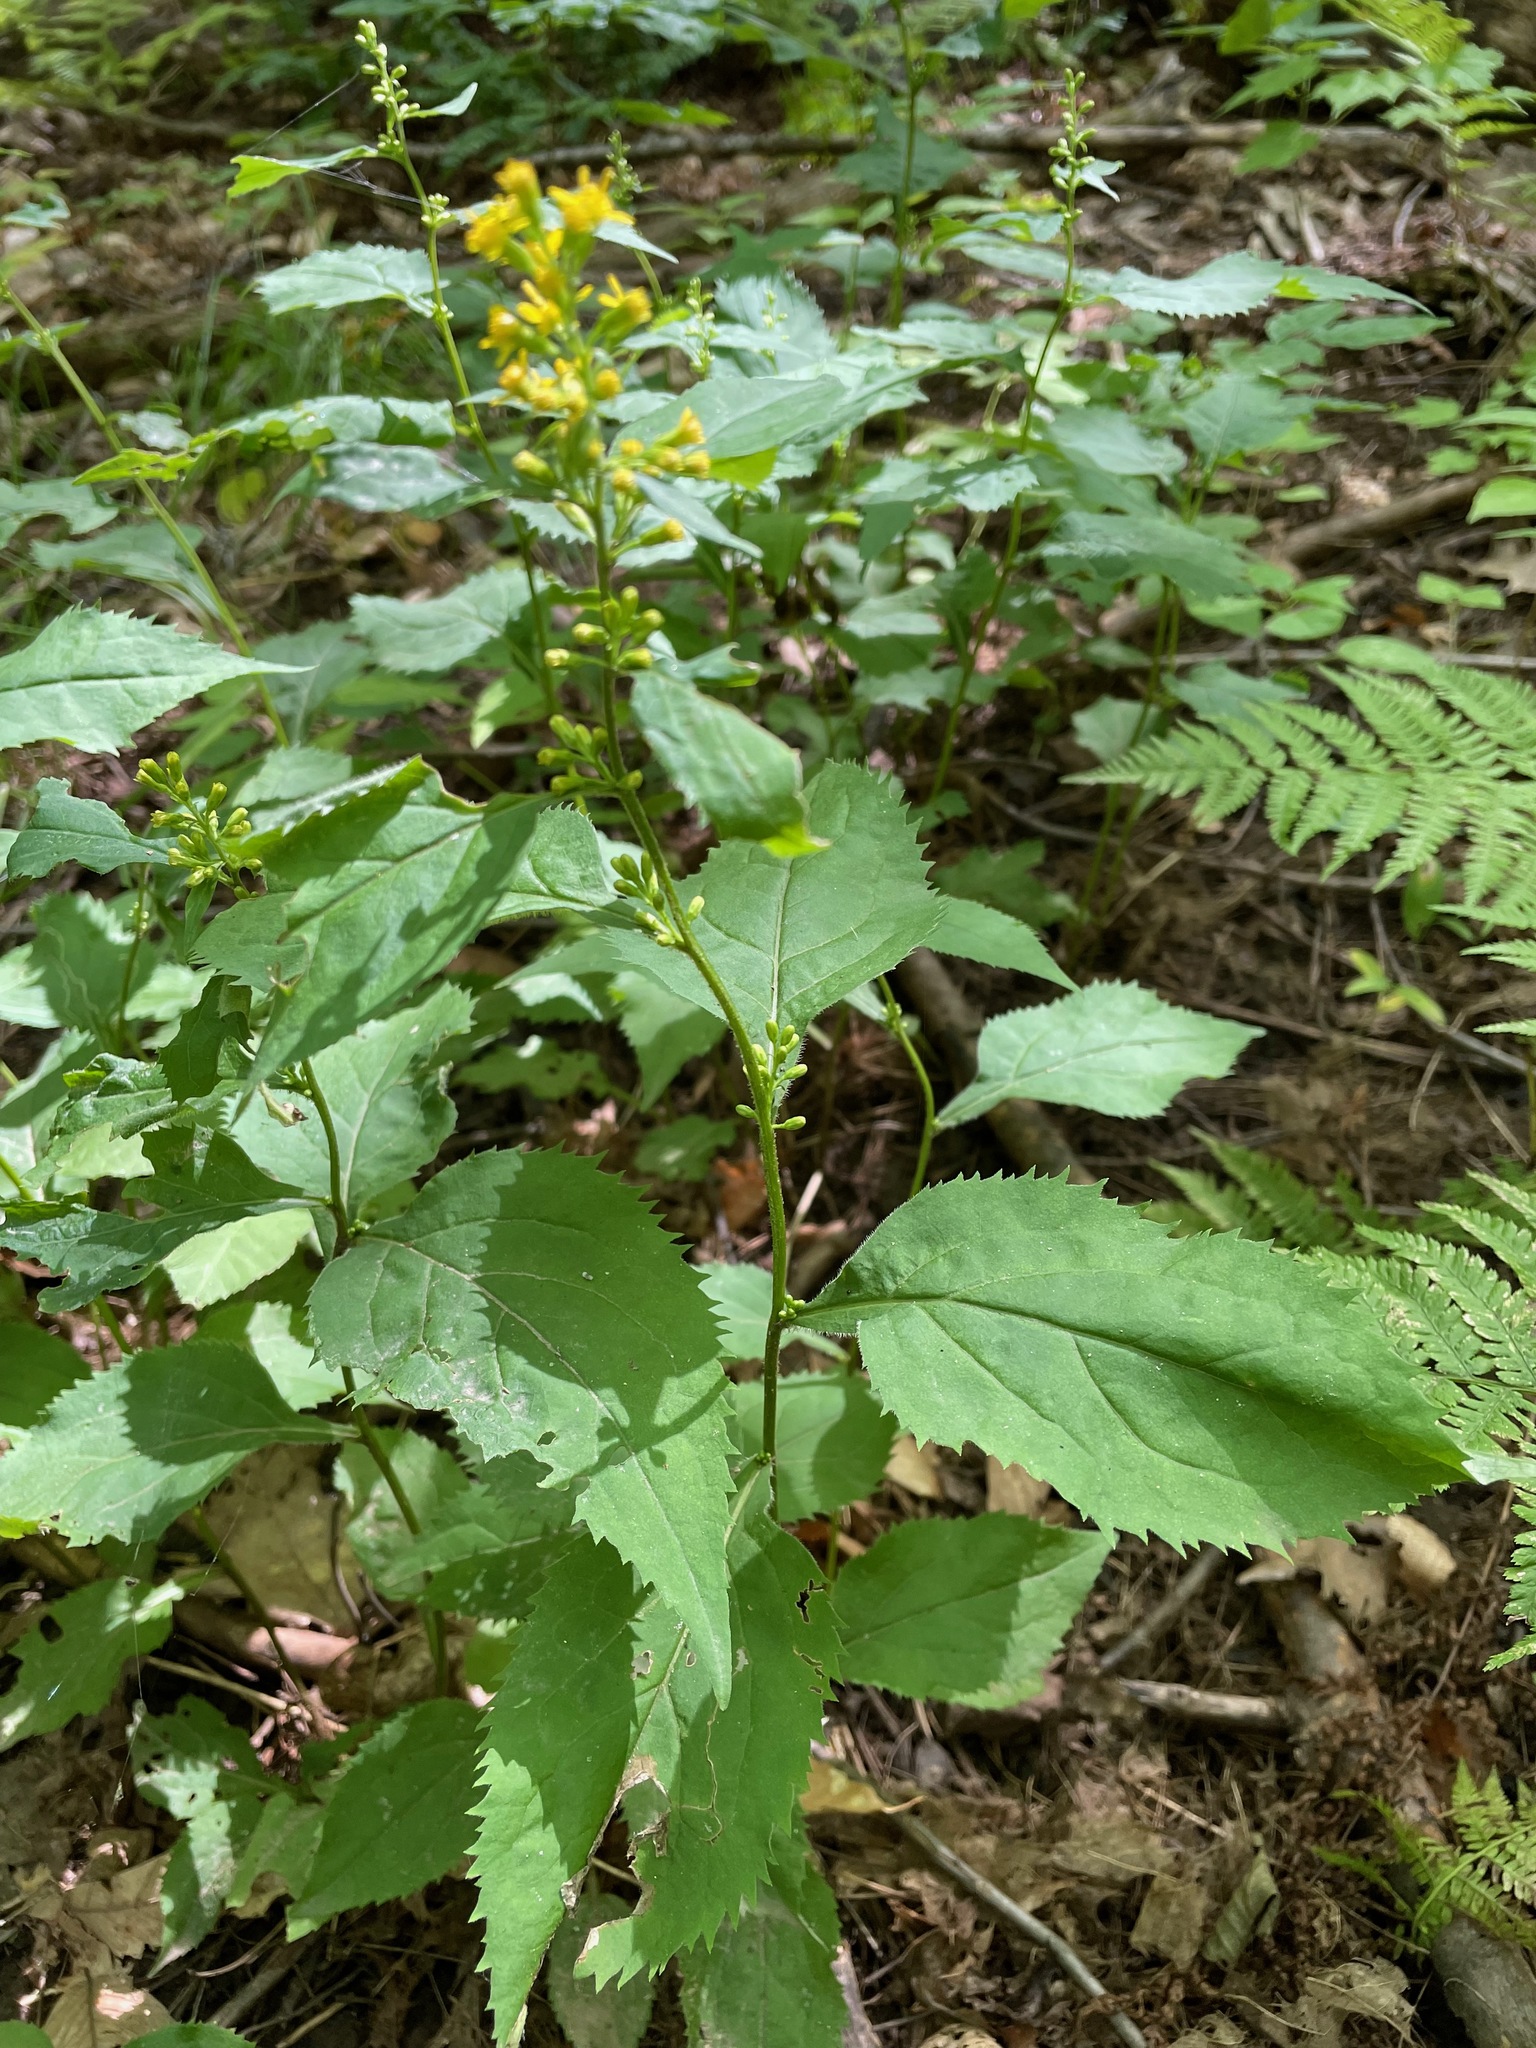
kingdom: Plantae
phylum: Tracheophyta
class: Magnoliopsida
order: Asterales
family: Asteraceae
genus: Solidago
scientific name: Solidago flexicaulis
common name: Zig-zag goldenrod
